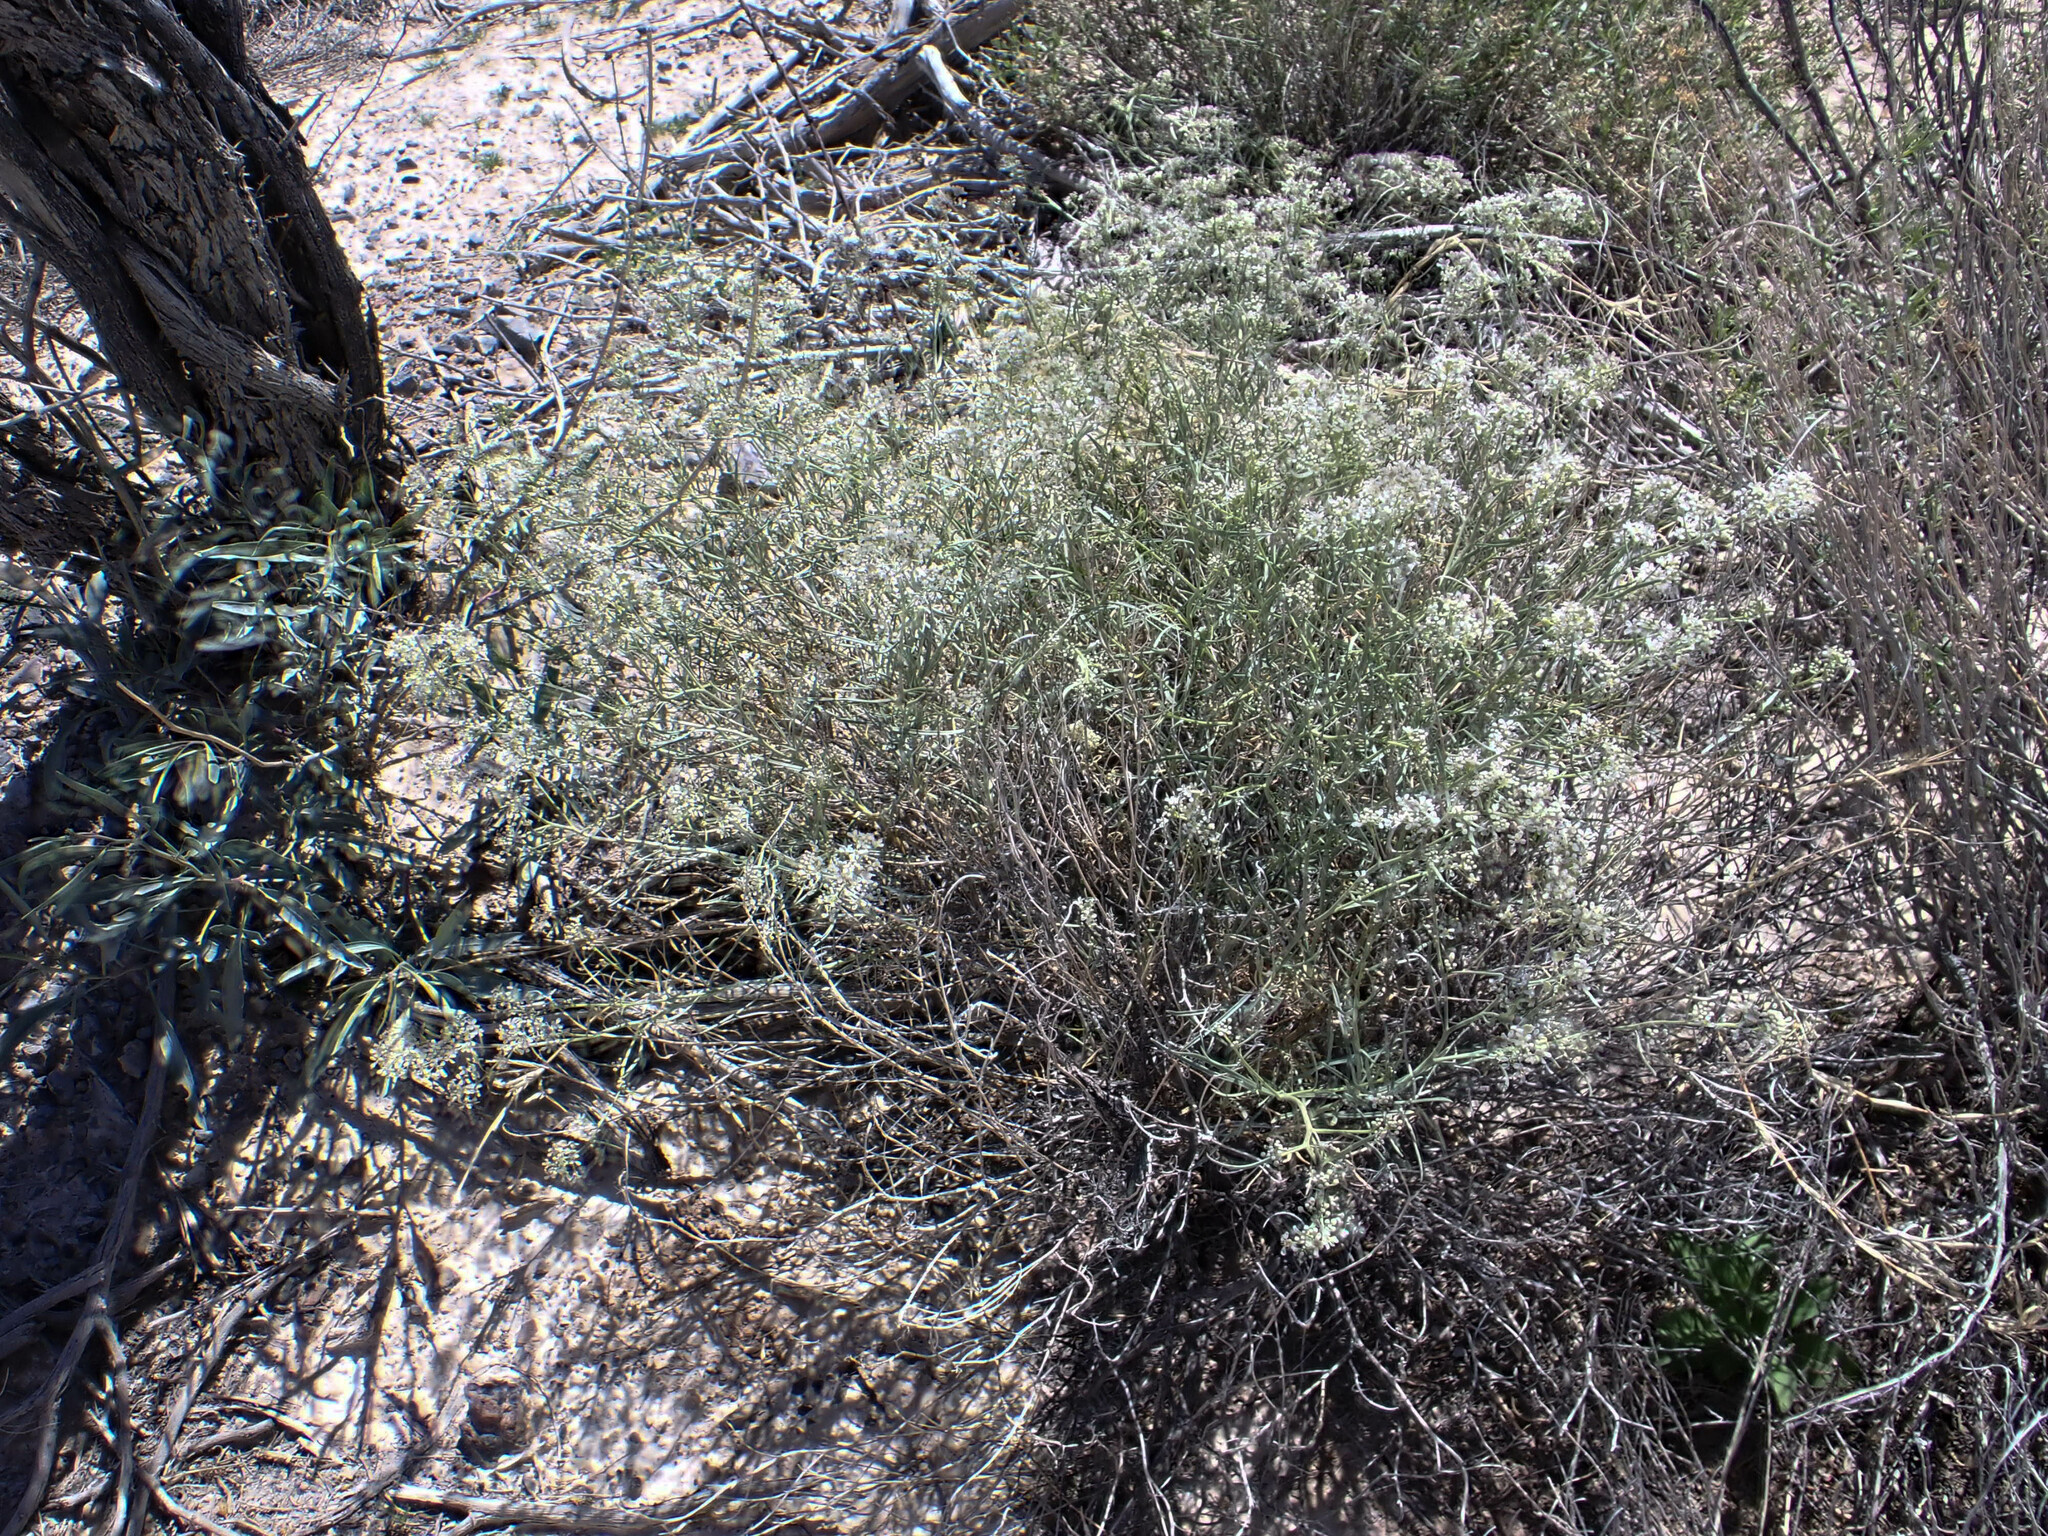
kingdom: Plantae
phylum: Tracheophyta
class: Magnoliopsida
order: Brassicales
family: Brassicaceae
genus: Lepidium
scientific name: Lepidium fremontii
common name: Fremont's pepperwort
